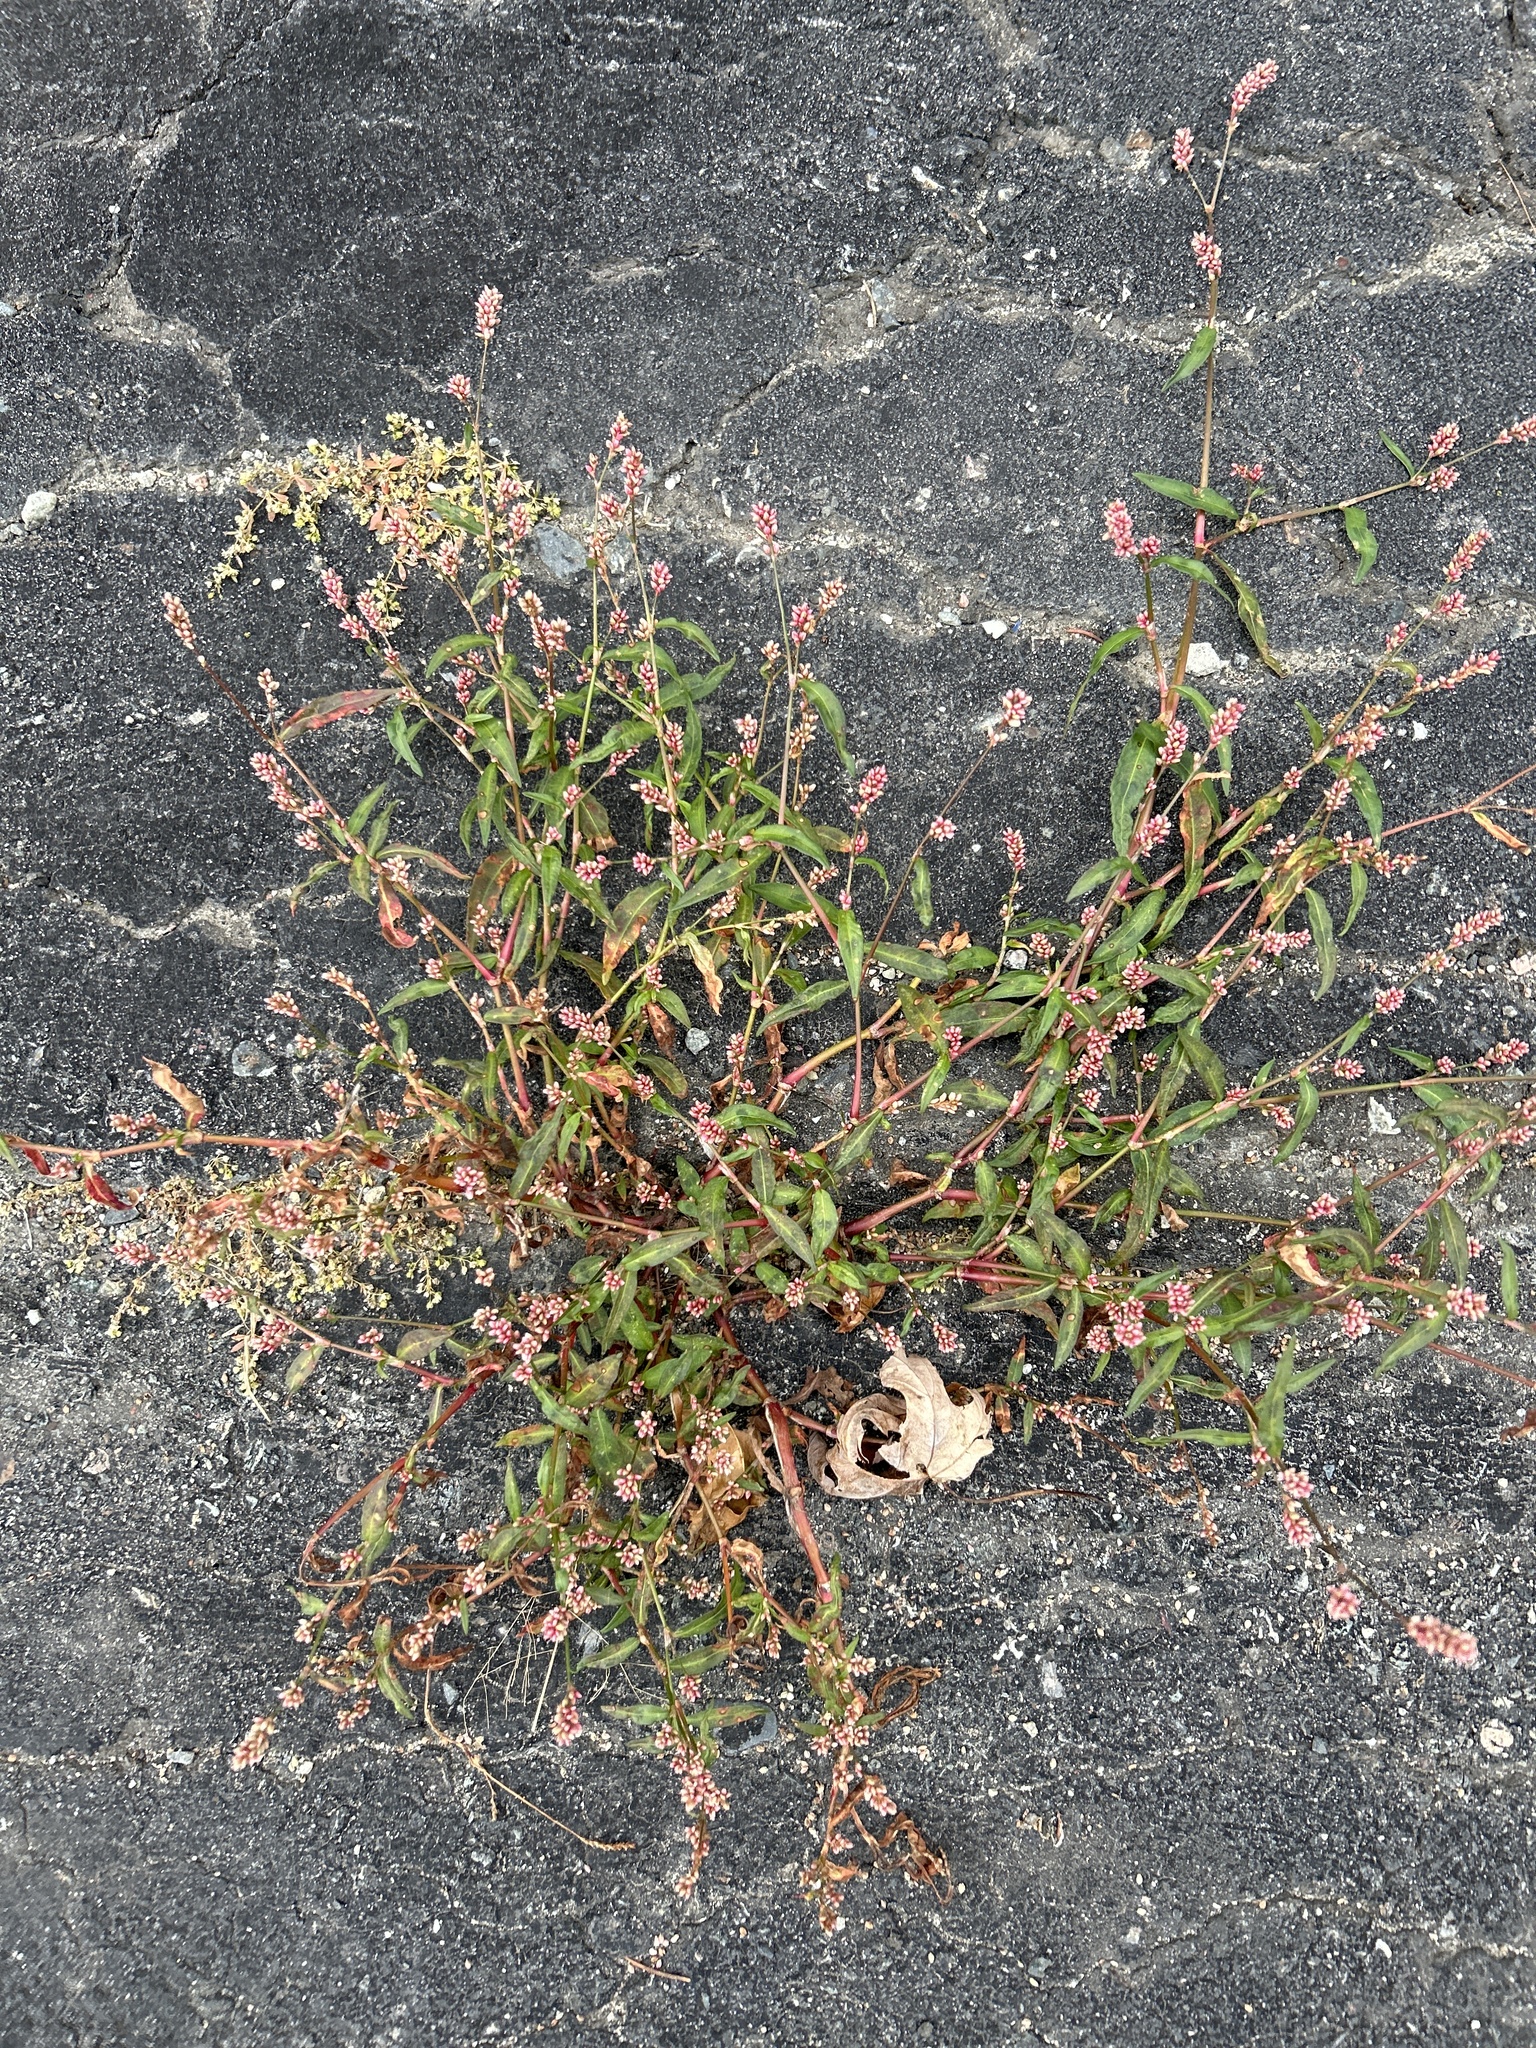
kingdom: Plantae
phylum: Tracheophyta
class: Magnoliopsida
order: Caryophyllales
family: Polygonaceae
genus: Persicaria
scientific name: Persicaria maculosa
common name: Redshank
